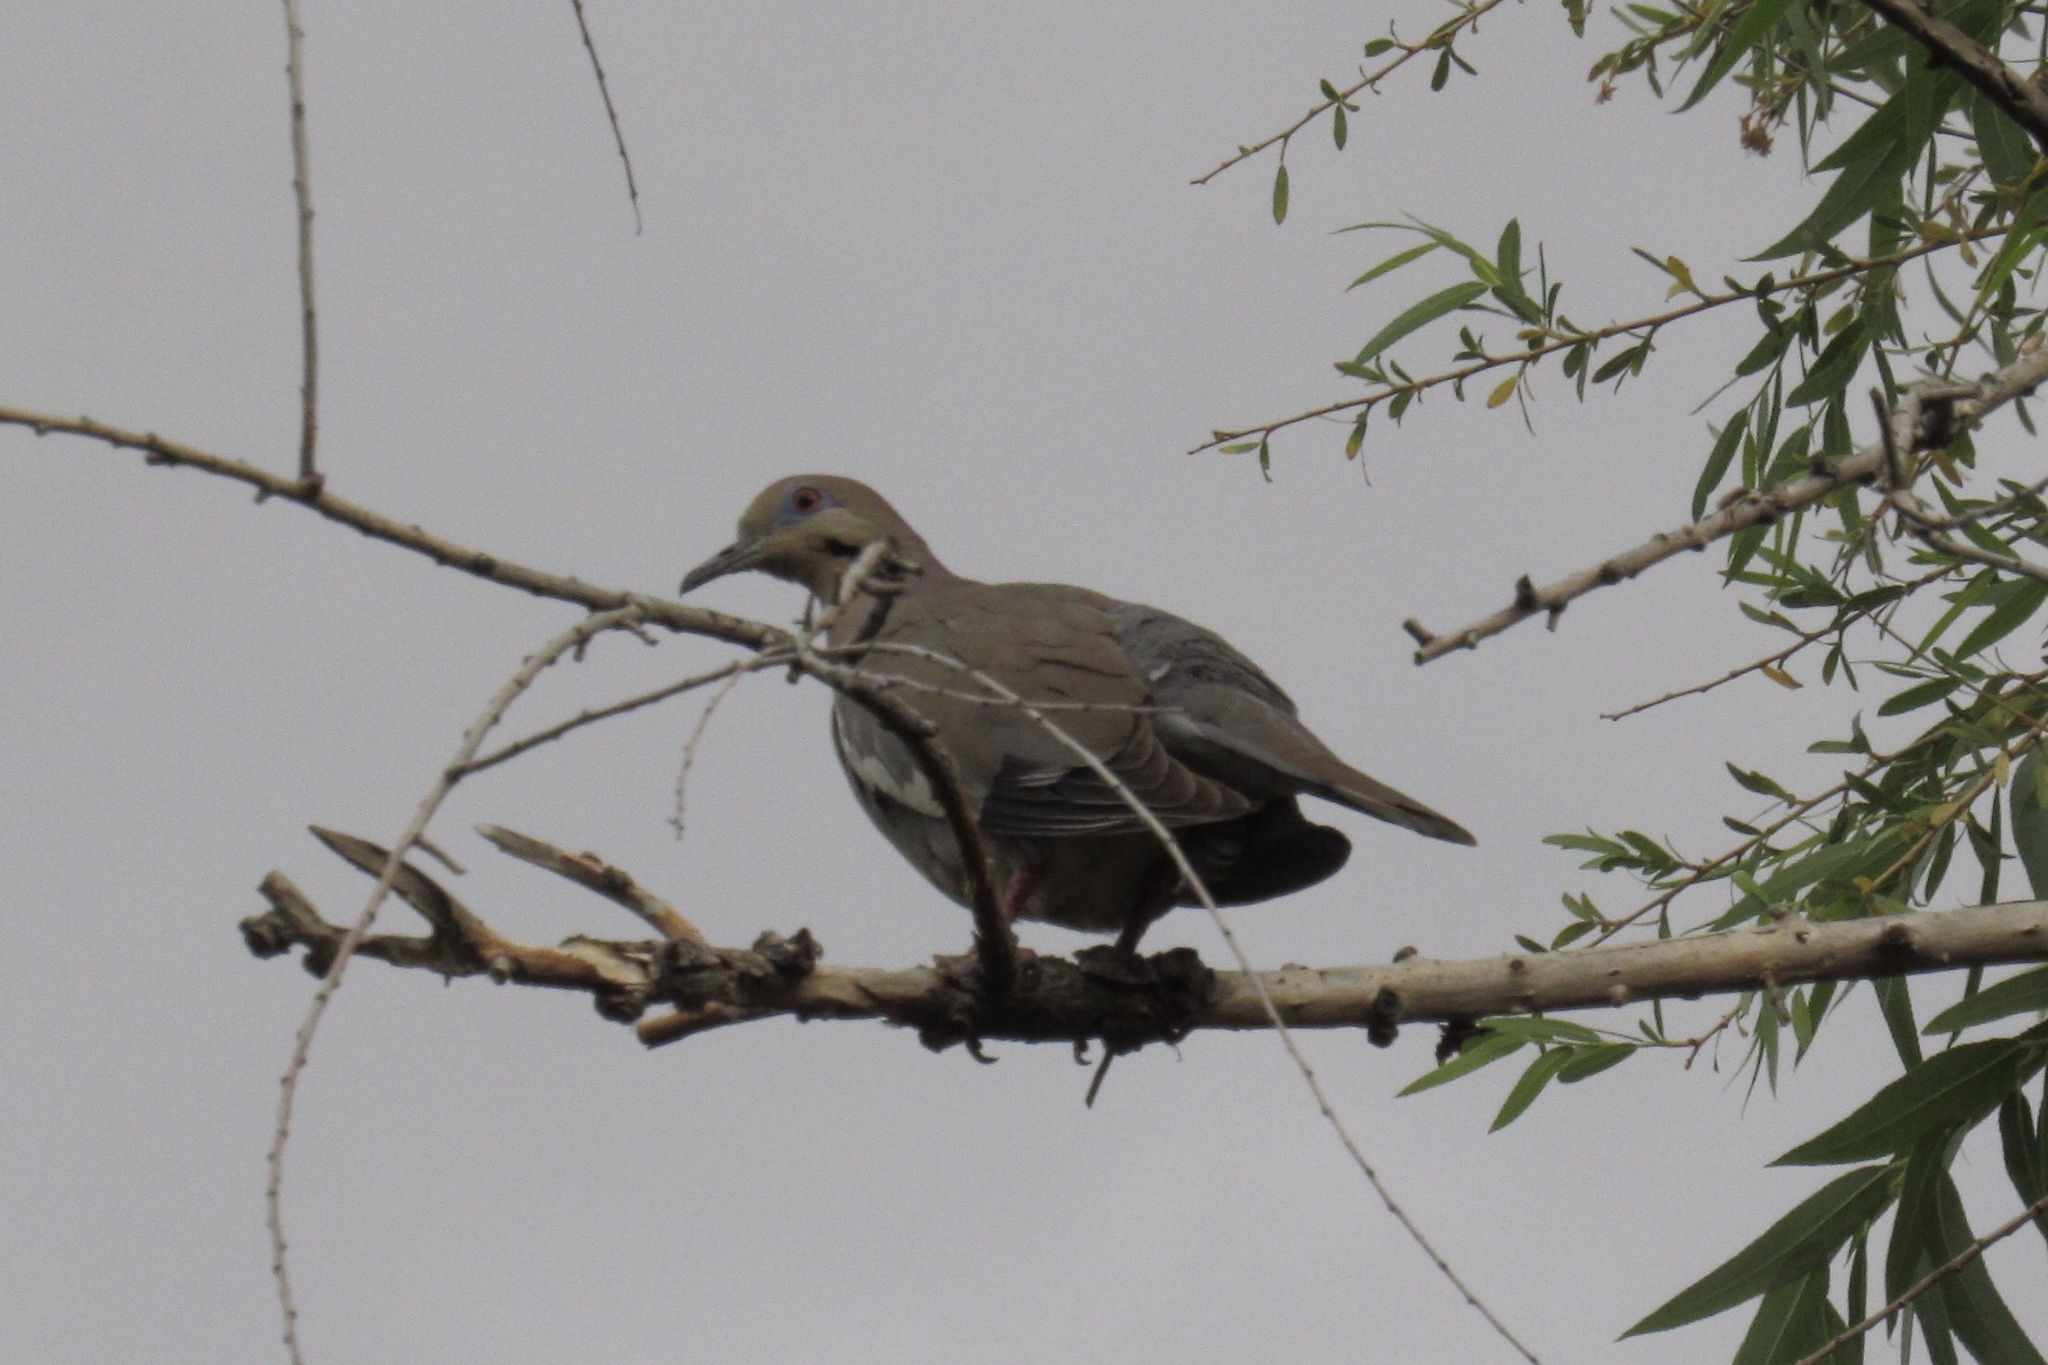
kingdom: Animalia
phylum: Chordata
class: Aves
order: Columbiformes
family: Columbidae
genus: Zenaida
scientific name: Zenaida asiatica
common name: White-winged dove
